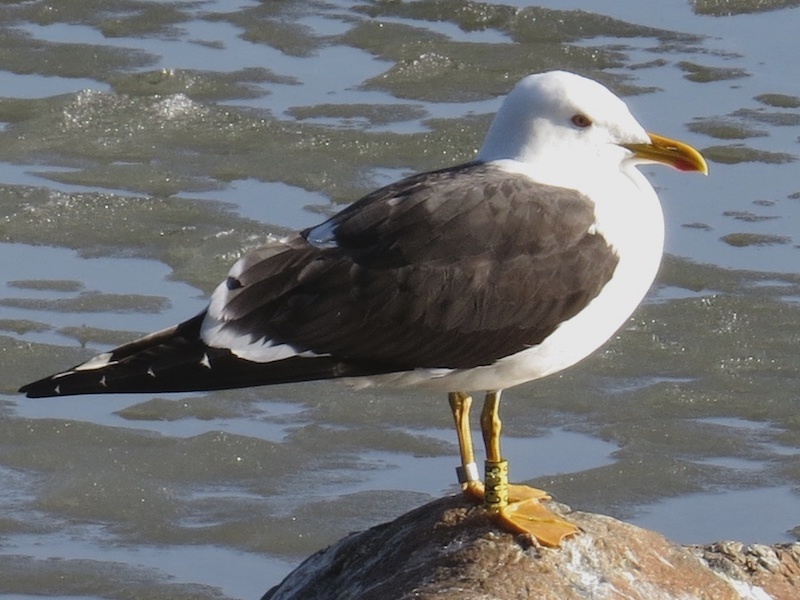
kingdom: Animalia
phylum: Chordata
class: Aves
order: Charadriiformes
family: Laridae
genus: Larus
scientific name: Larus fuscus
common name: Lesser black-backed gull
